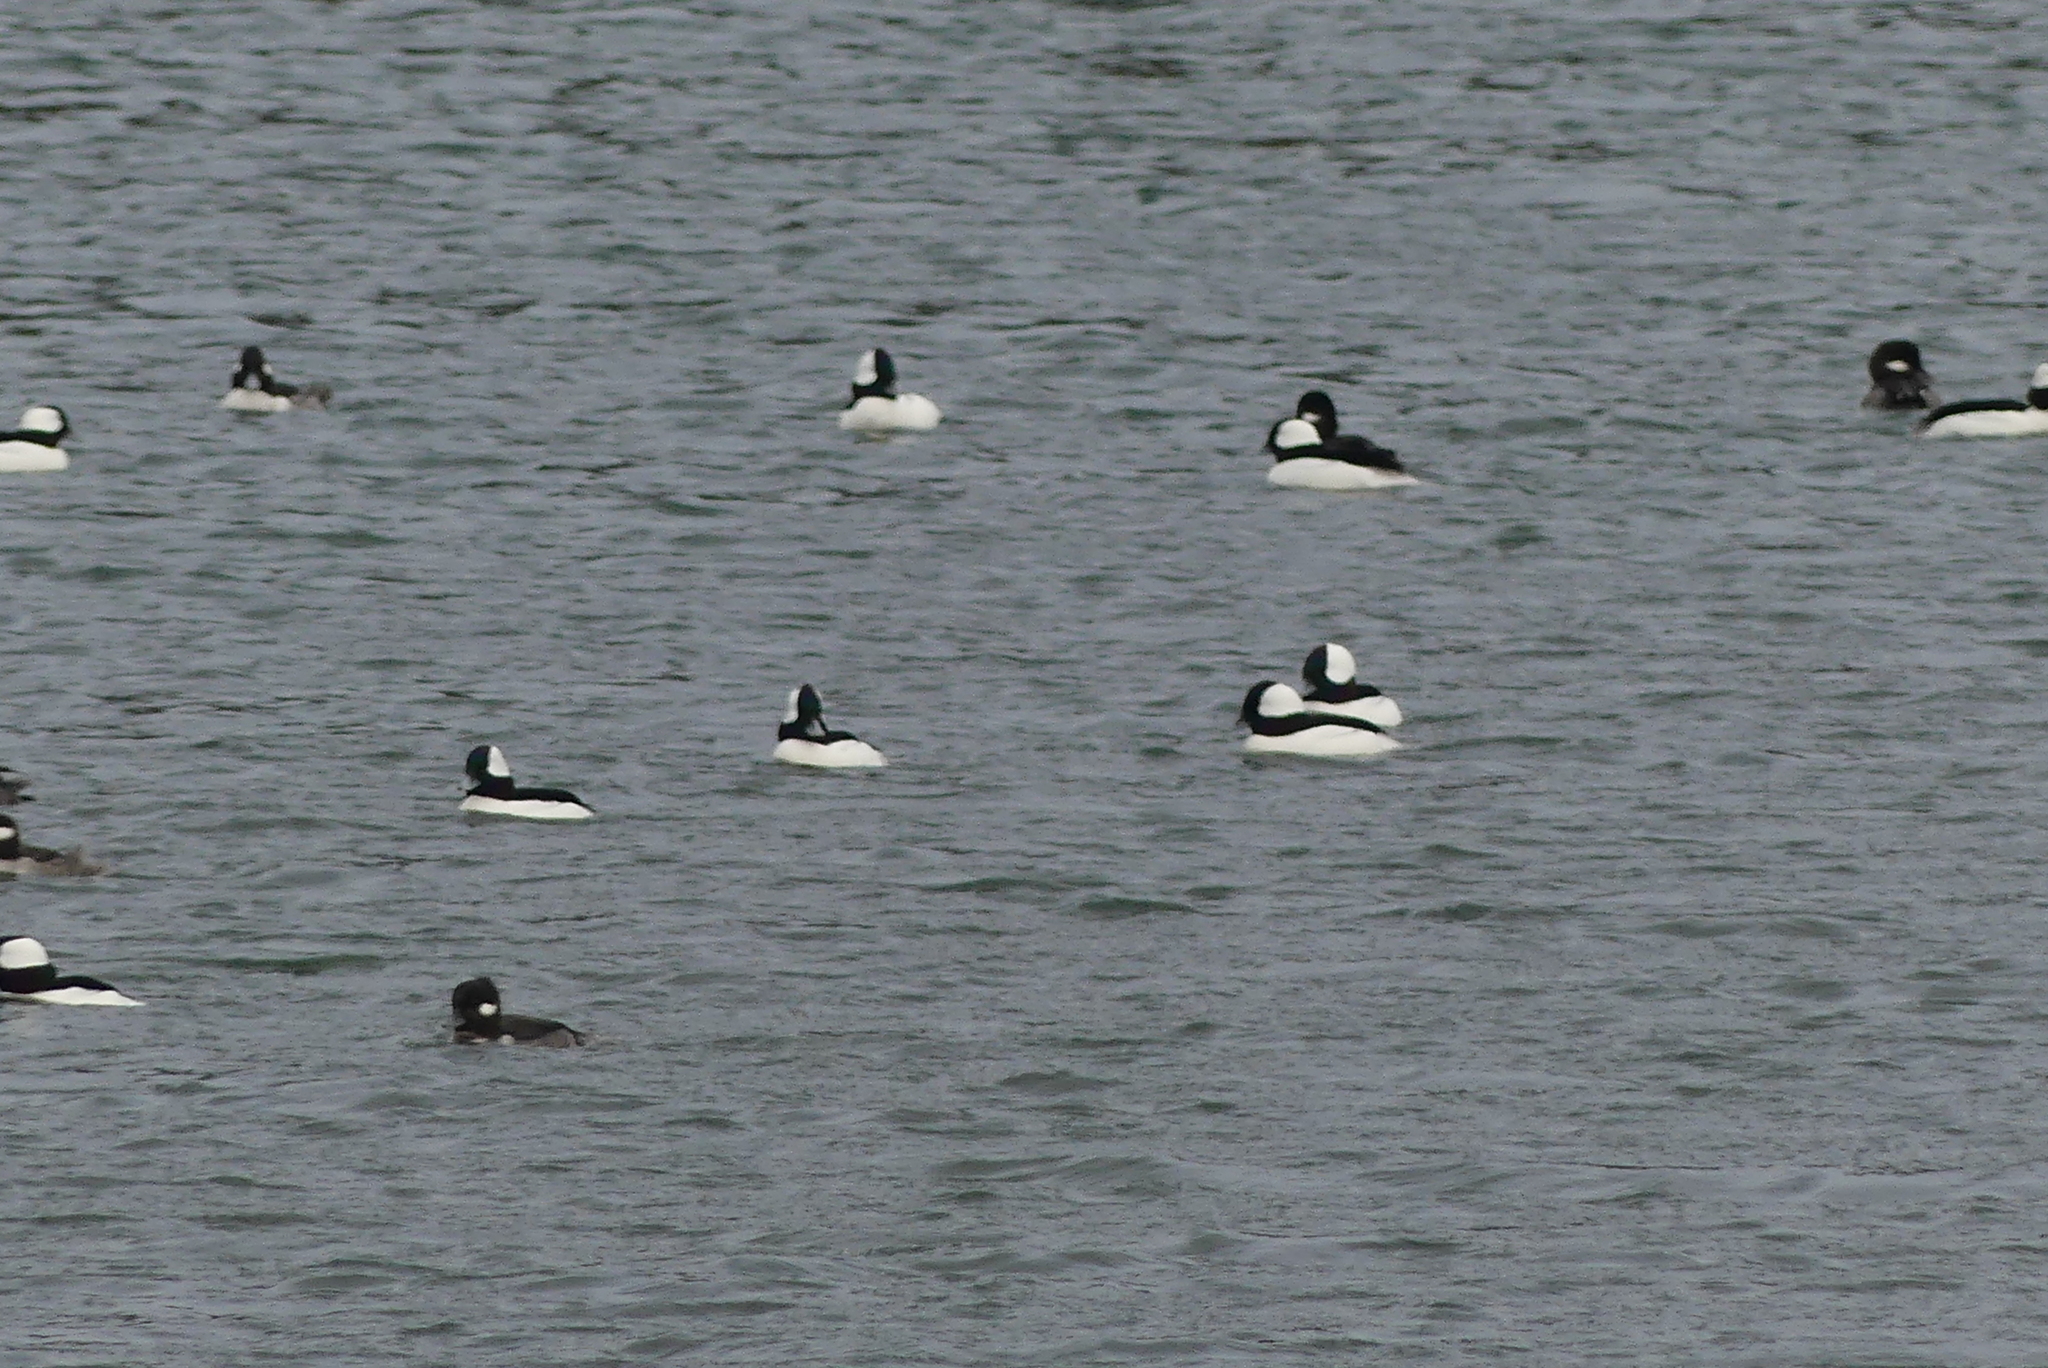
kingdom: Animalia
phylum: Chordata
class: Aves
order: Anseriformes
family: Anatidae
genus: Bucephala
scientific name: Bucephala albeola
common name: Bufflehead
